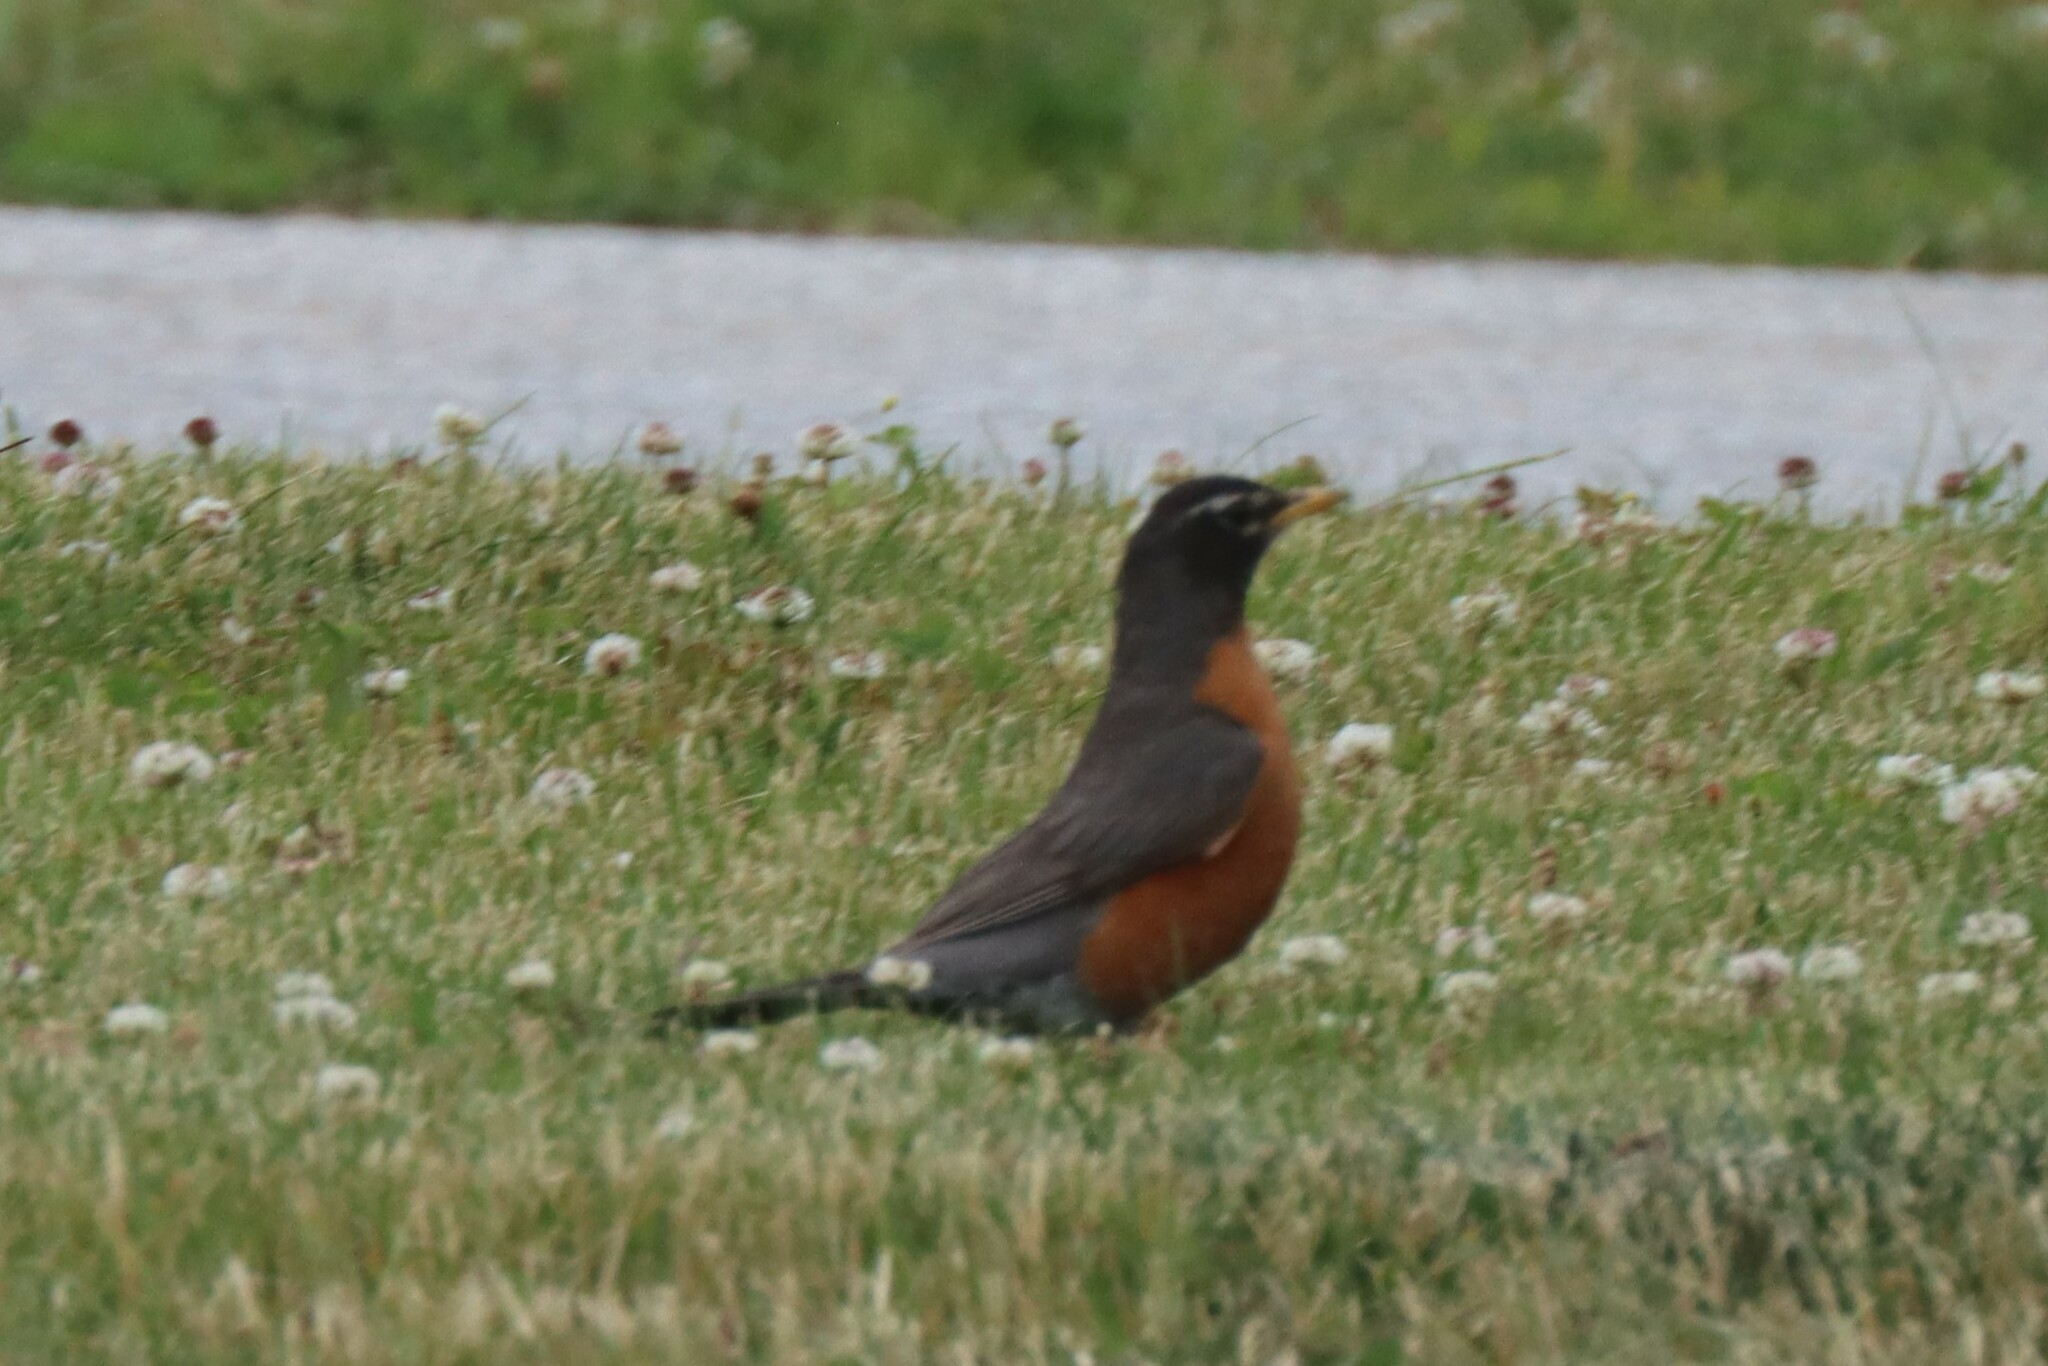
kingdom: Animalia
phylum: Chordata
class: Aves
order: Passeriformes
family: Turdidae
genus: Turdus
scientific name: Turdus migratorius
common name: American robin
